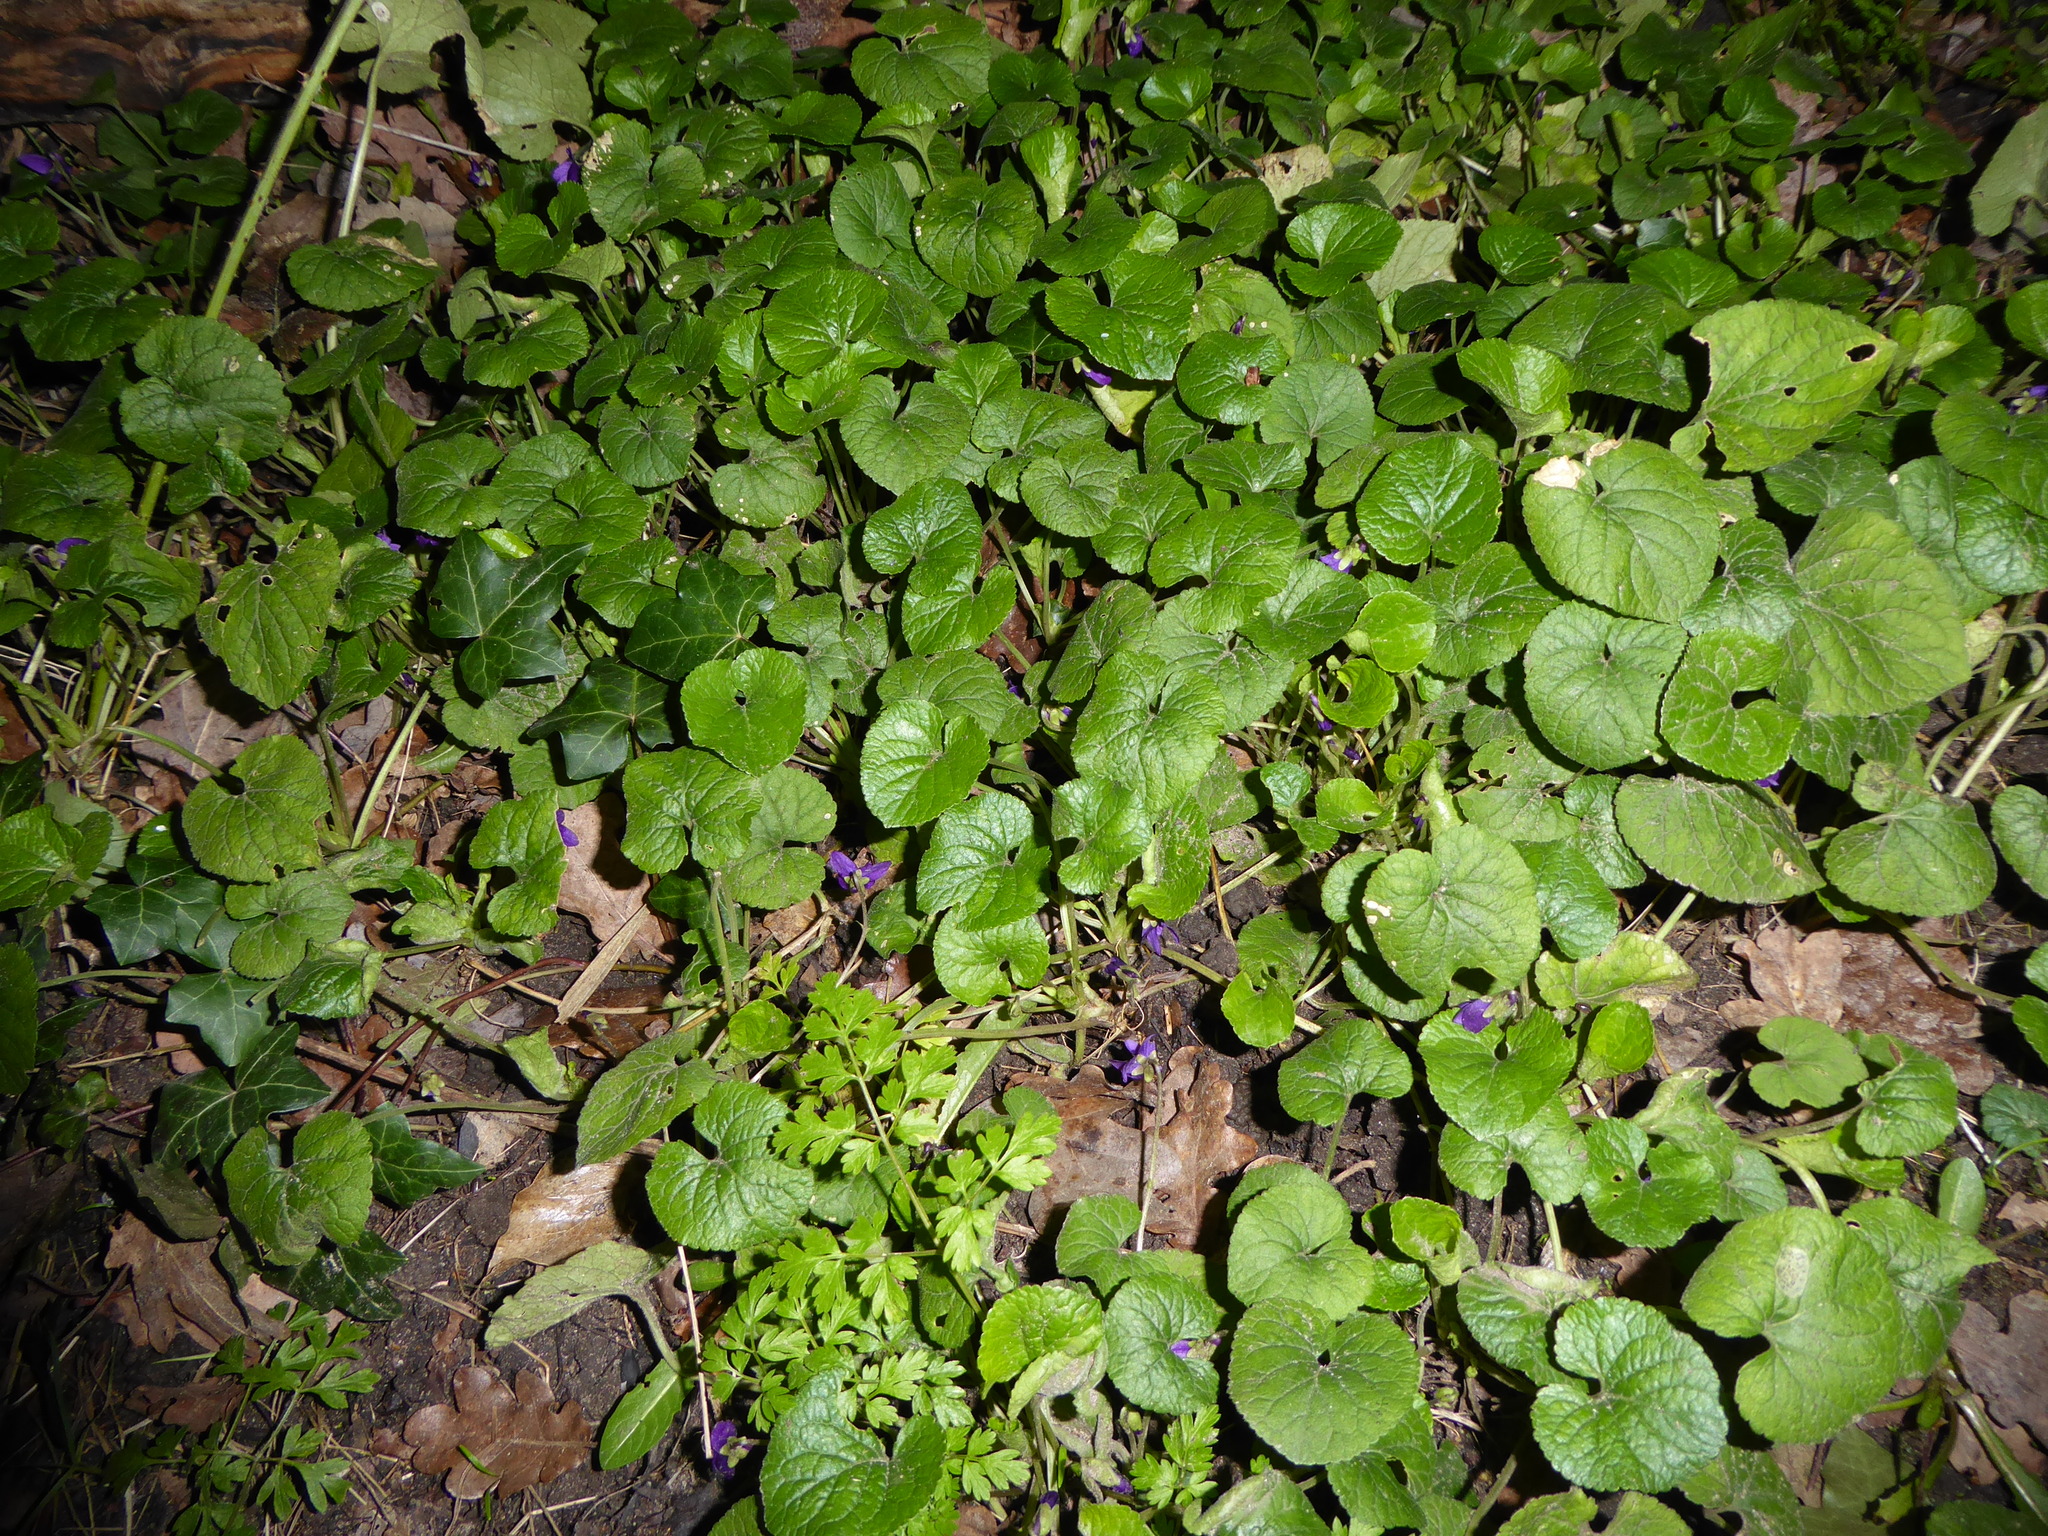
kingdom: Plantae
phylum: Tracheophyta
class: Magnoliopsida
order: Malpighiales
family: Violaceae
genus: Viola
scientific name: Viola odorata
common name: Sweet violet
